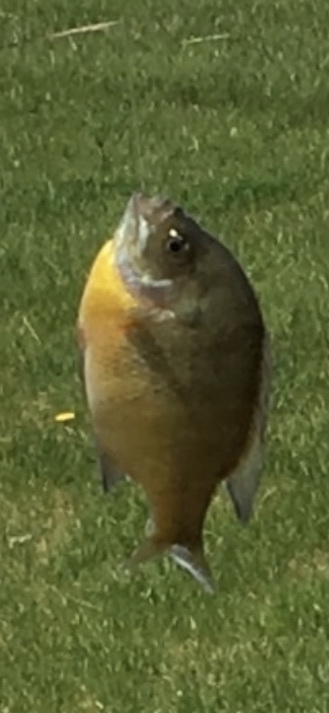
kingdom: Animalia
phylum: Chordata
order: Perciformes
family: Centrarchidae
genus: Lepomis
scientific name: Lepomis macrochirus
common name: Bluegill
